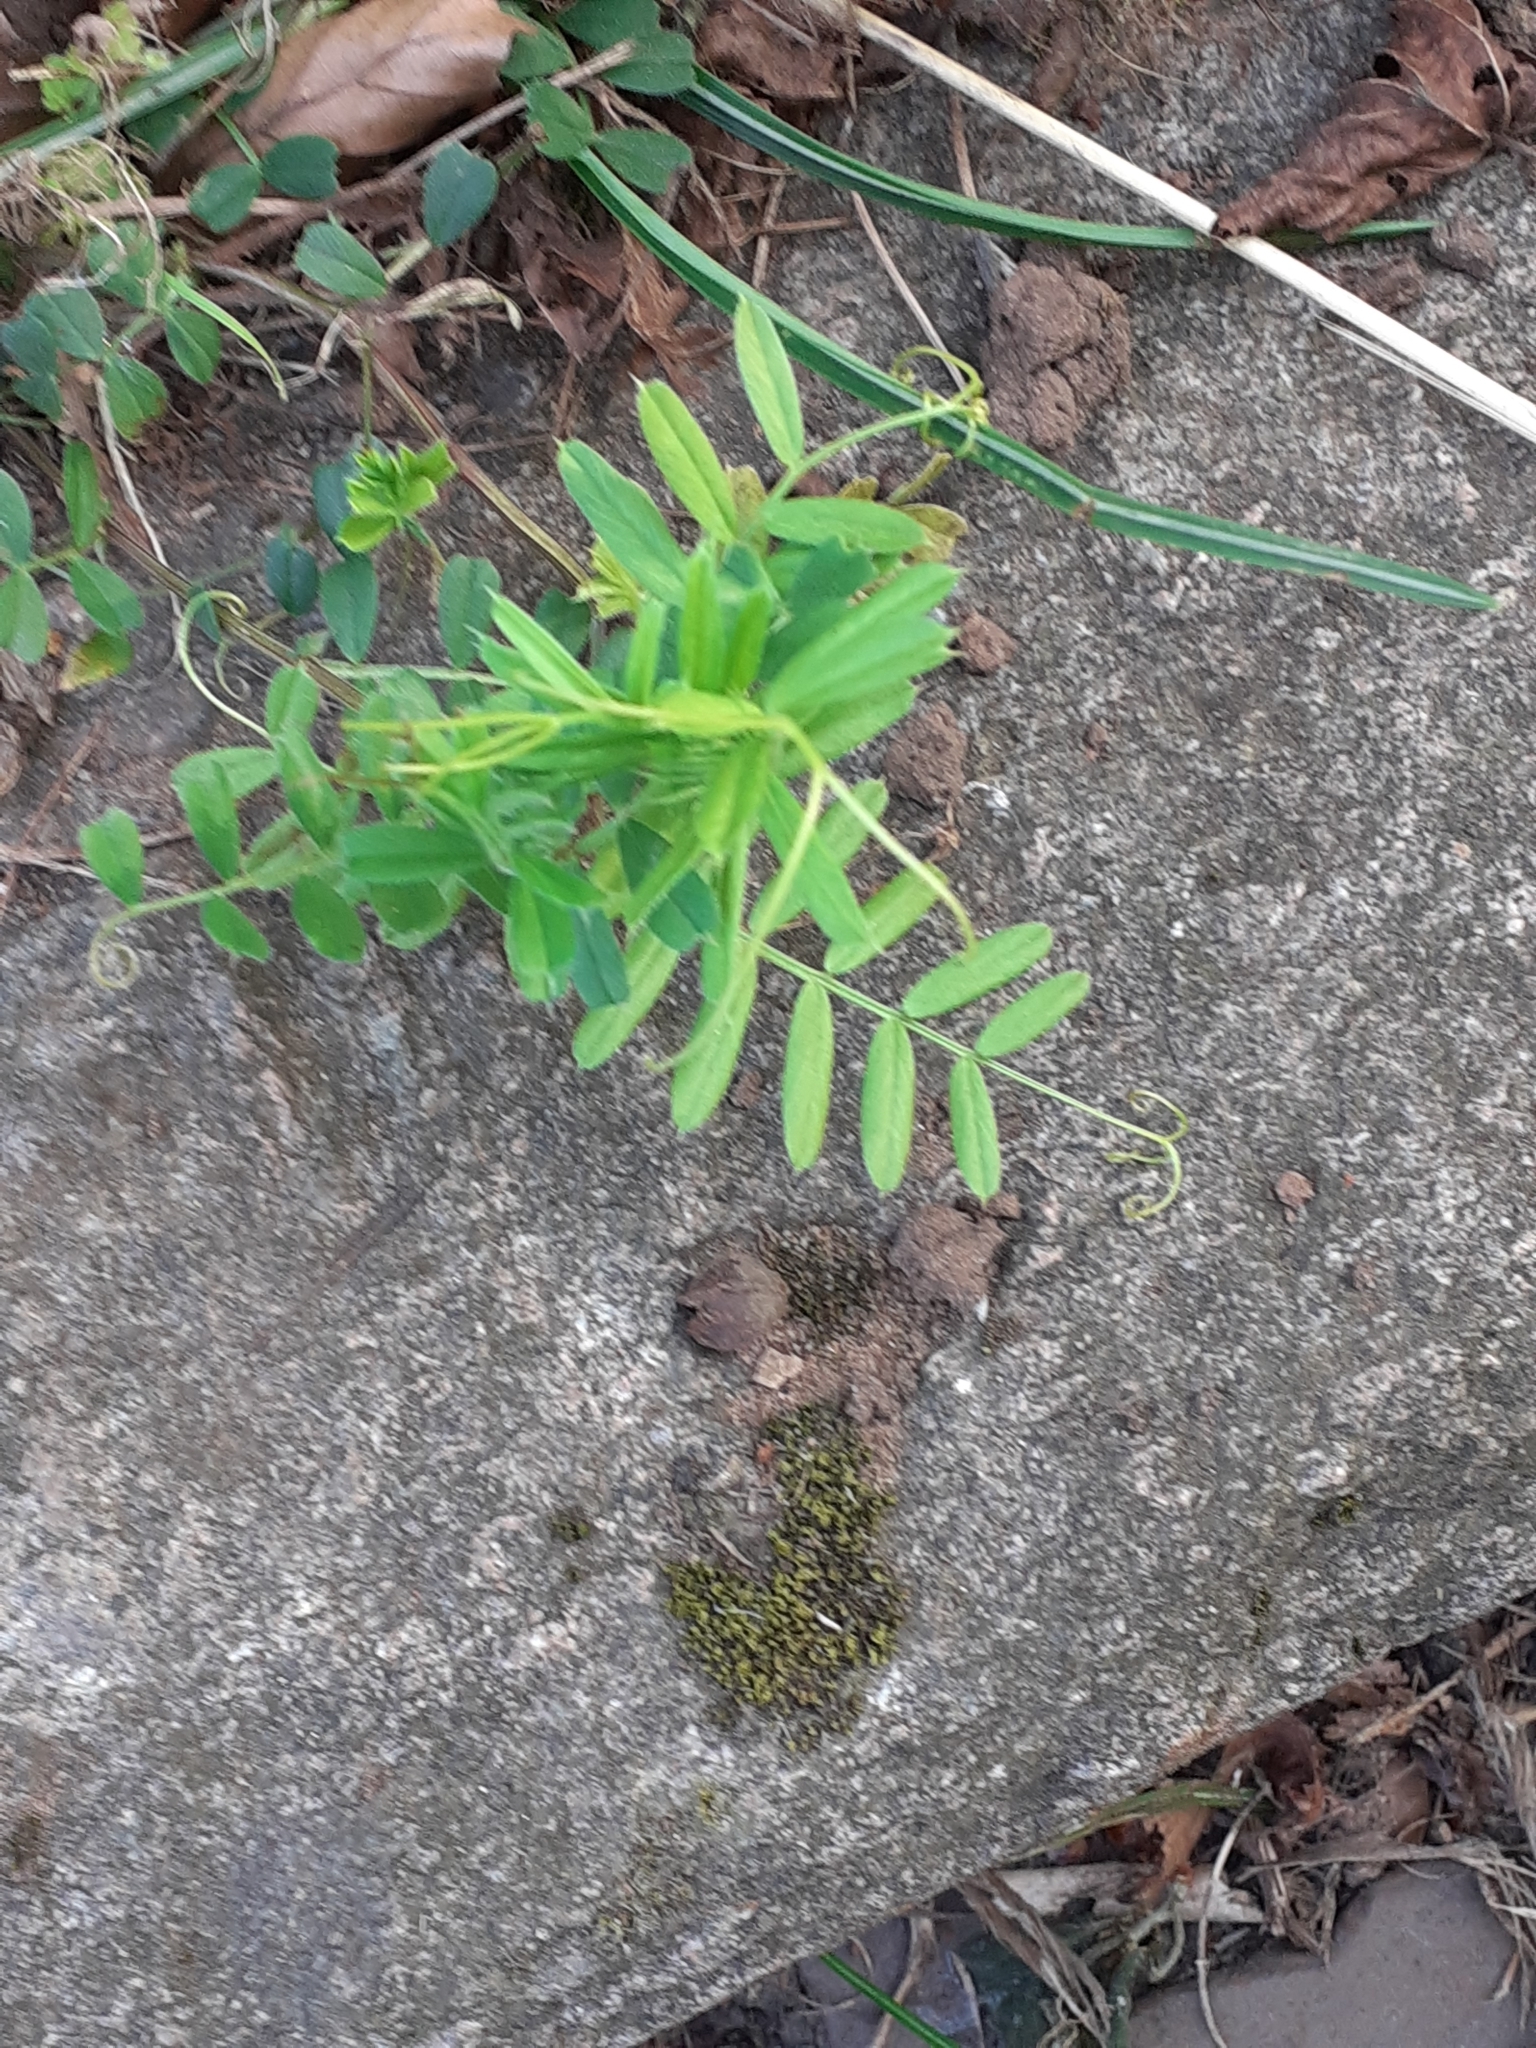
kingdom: Plantae
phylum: Tracheophyta
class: Magnoliopsida
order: Fabales
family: Fabaceae
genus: Vicia
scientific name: Vicia sativa
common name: Garden vetch
